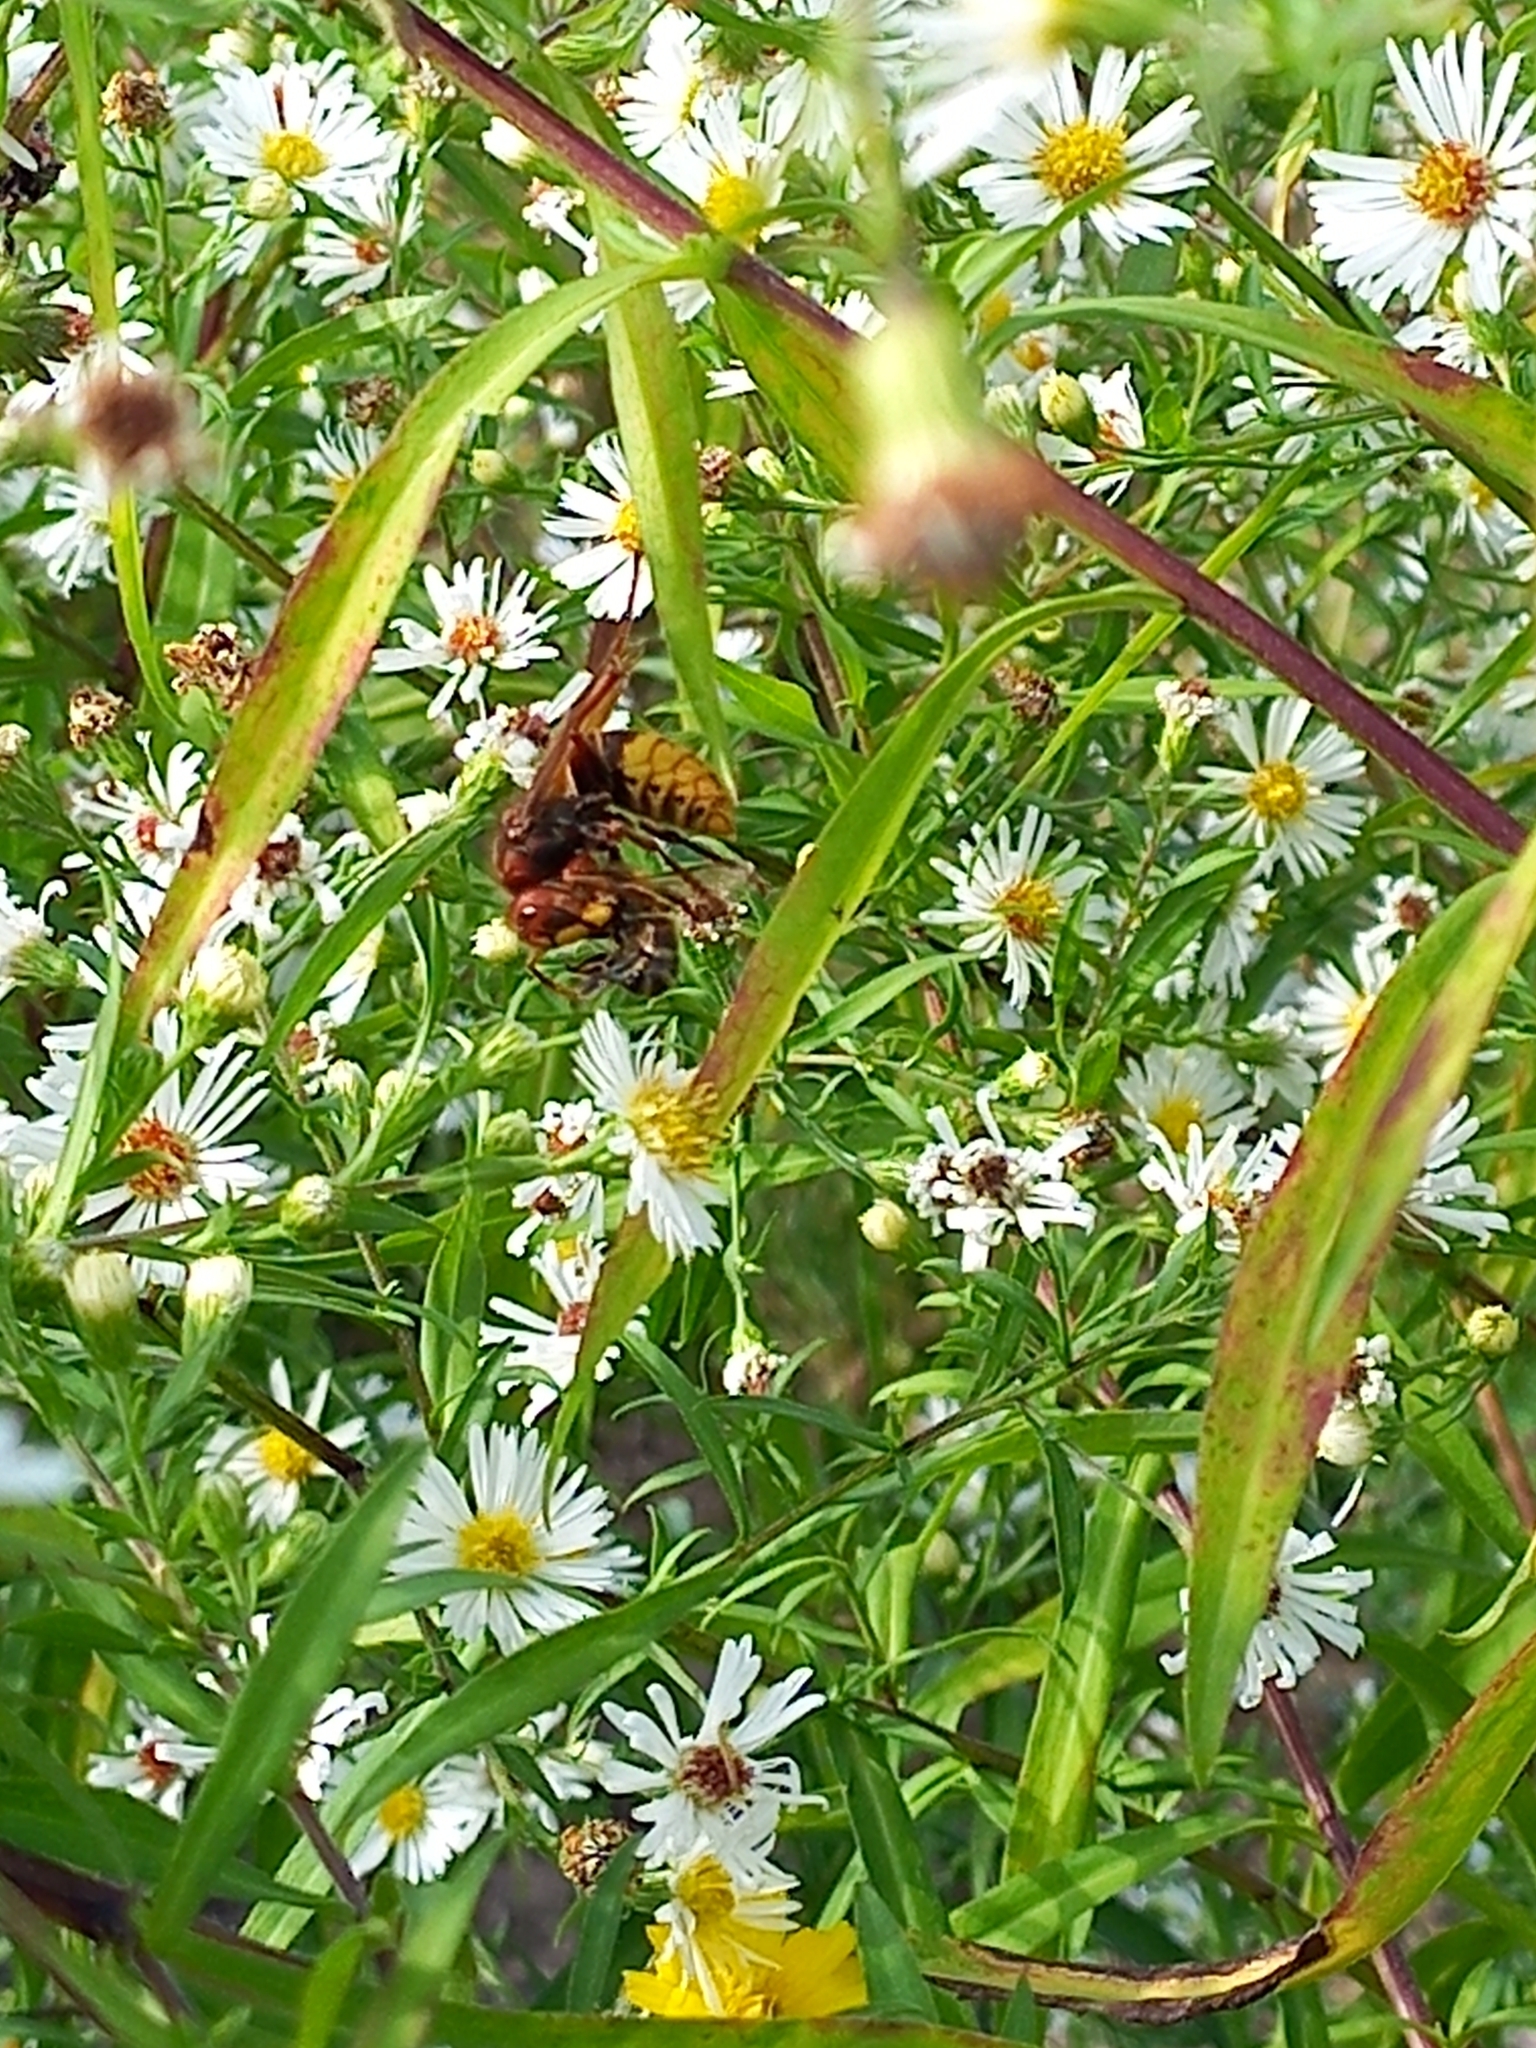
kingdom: Animalia
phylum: Arthropoda
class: Insecta
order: Hymenoptera
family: Vespidae
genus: Vespa
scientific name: Vespa crabro
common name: Hornet
